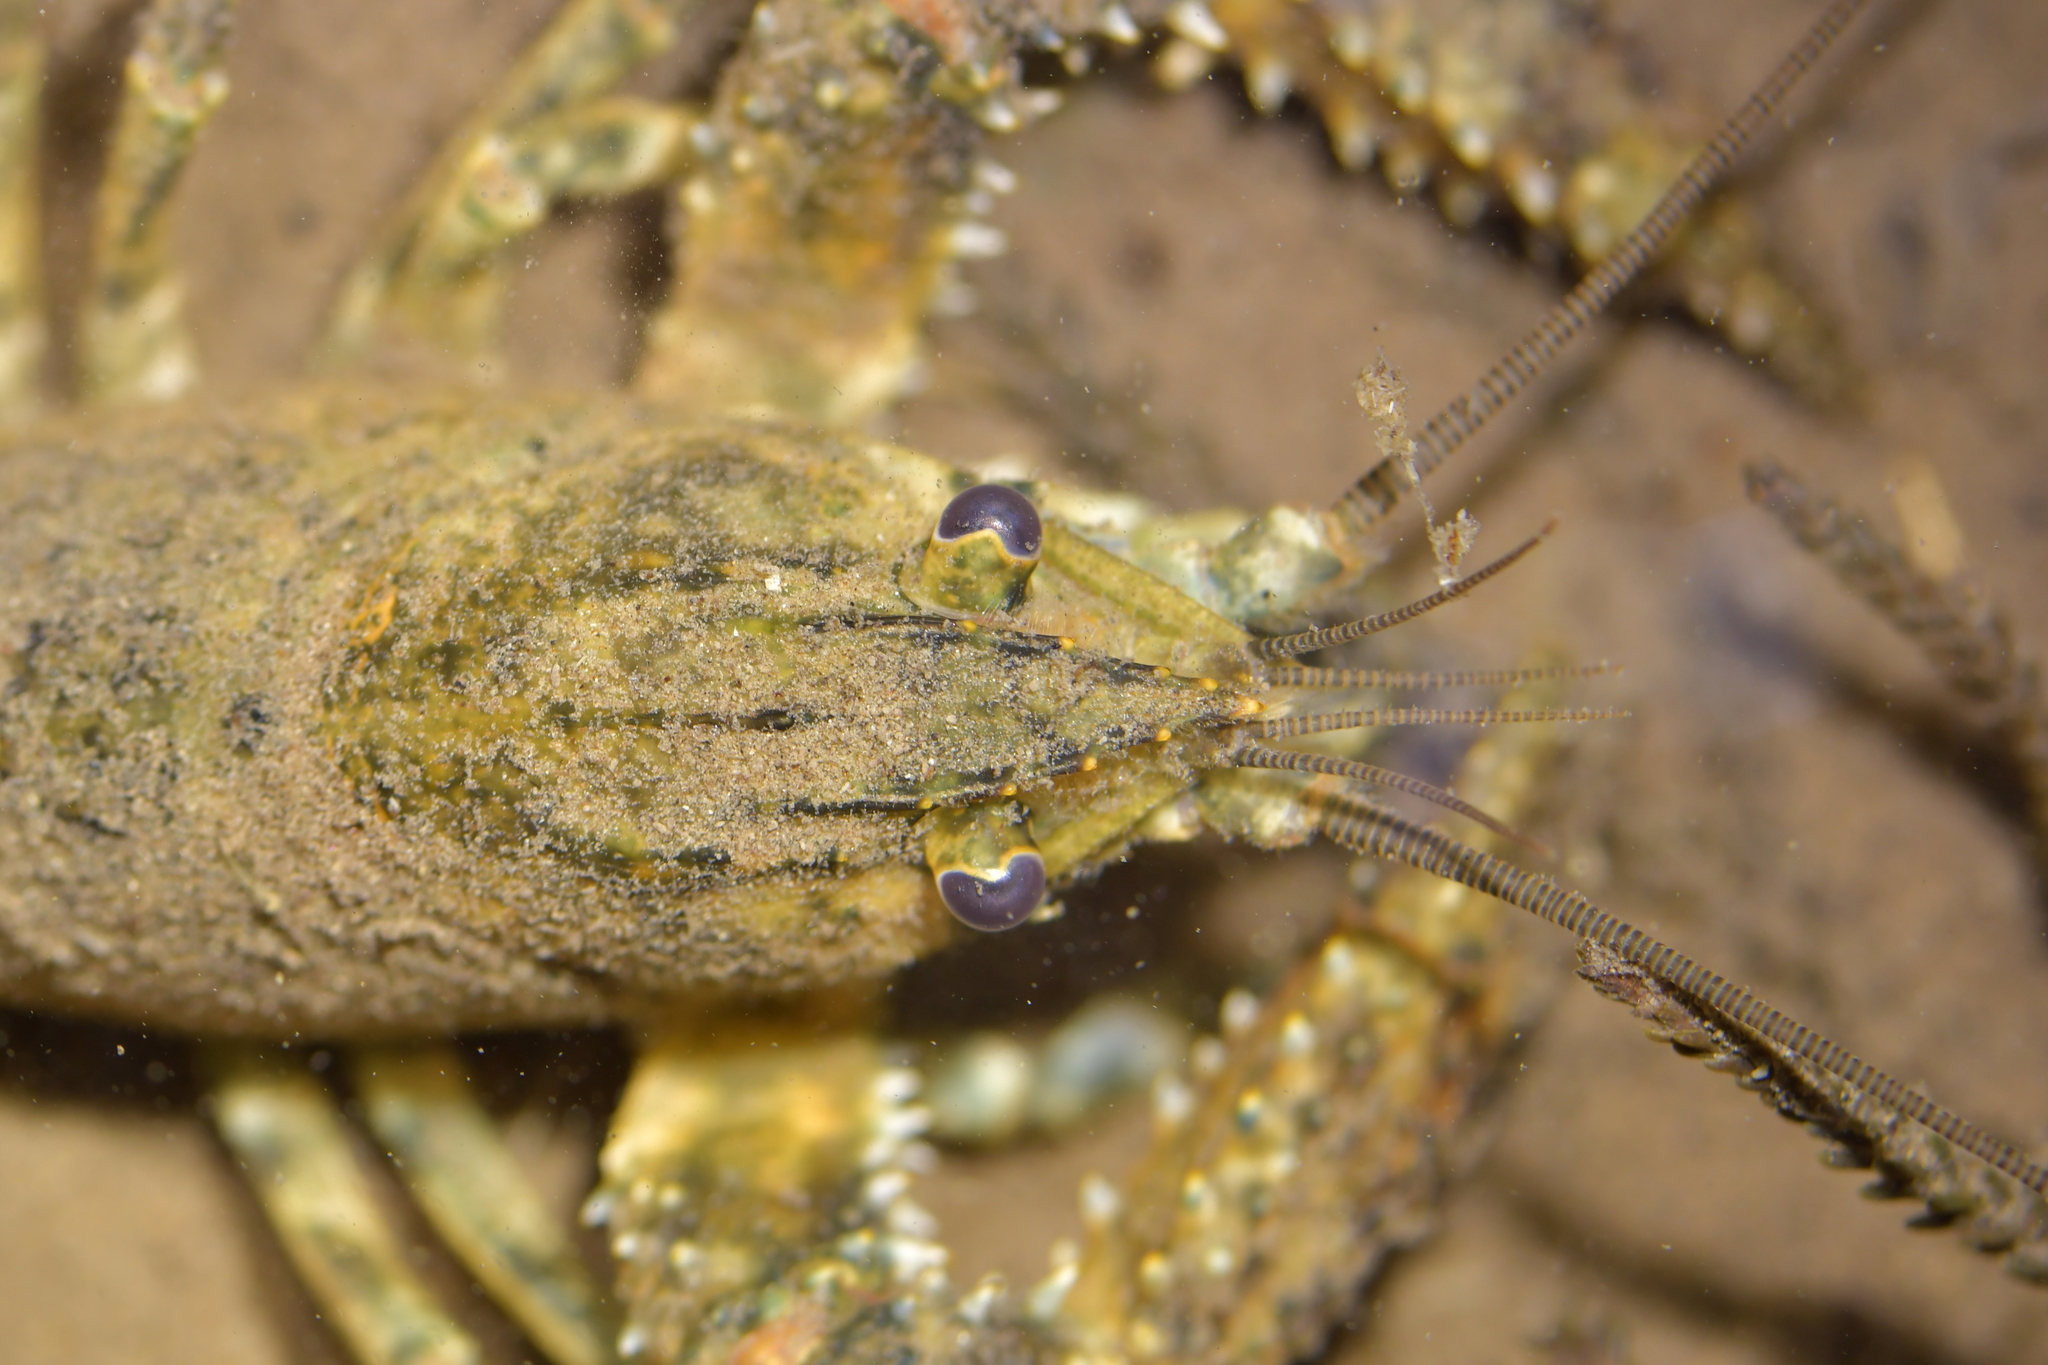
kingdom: Animalia
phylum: Arthropoda
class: Malacostraca
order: Decapoda
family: Parastacidae
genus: Paranephrops
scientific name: Paranephrops planifrons
